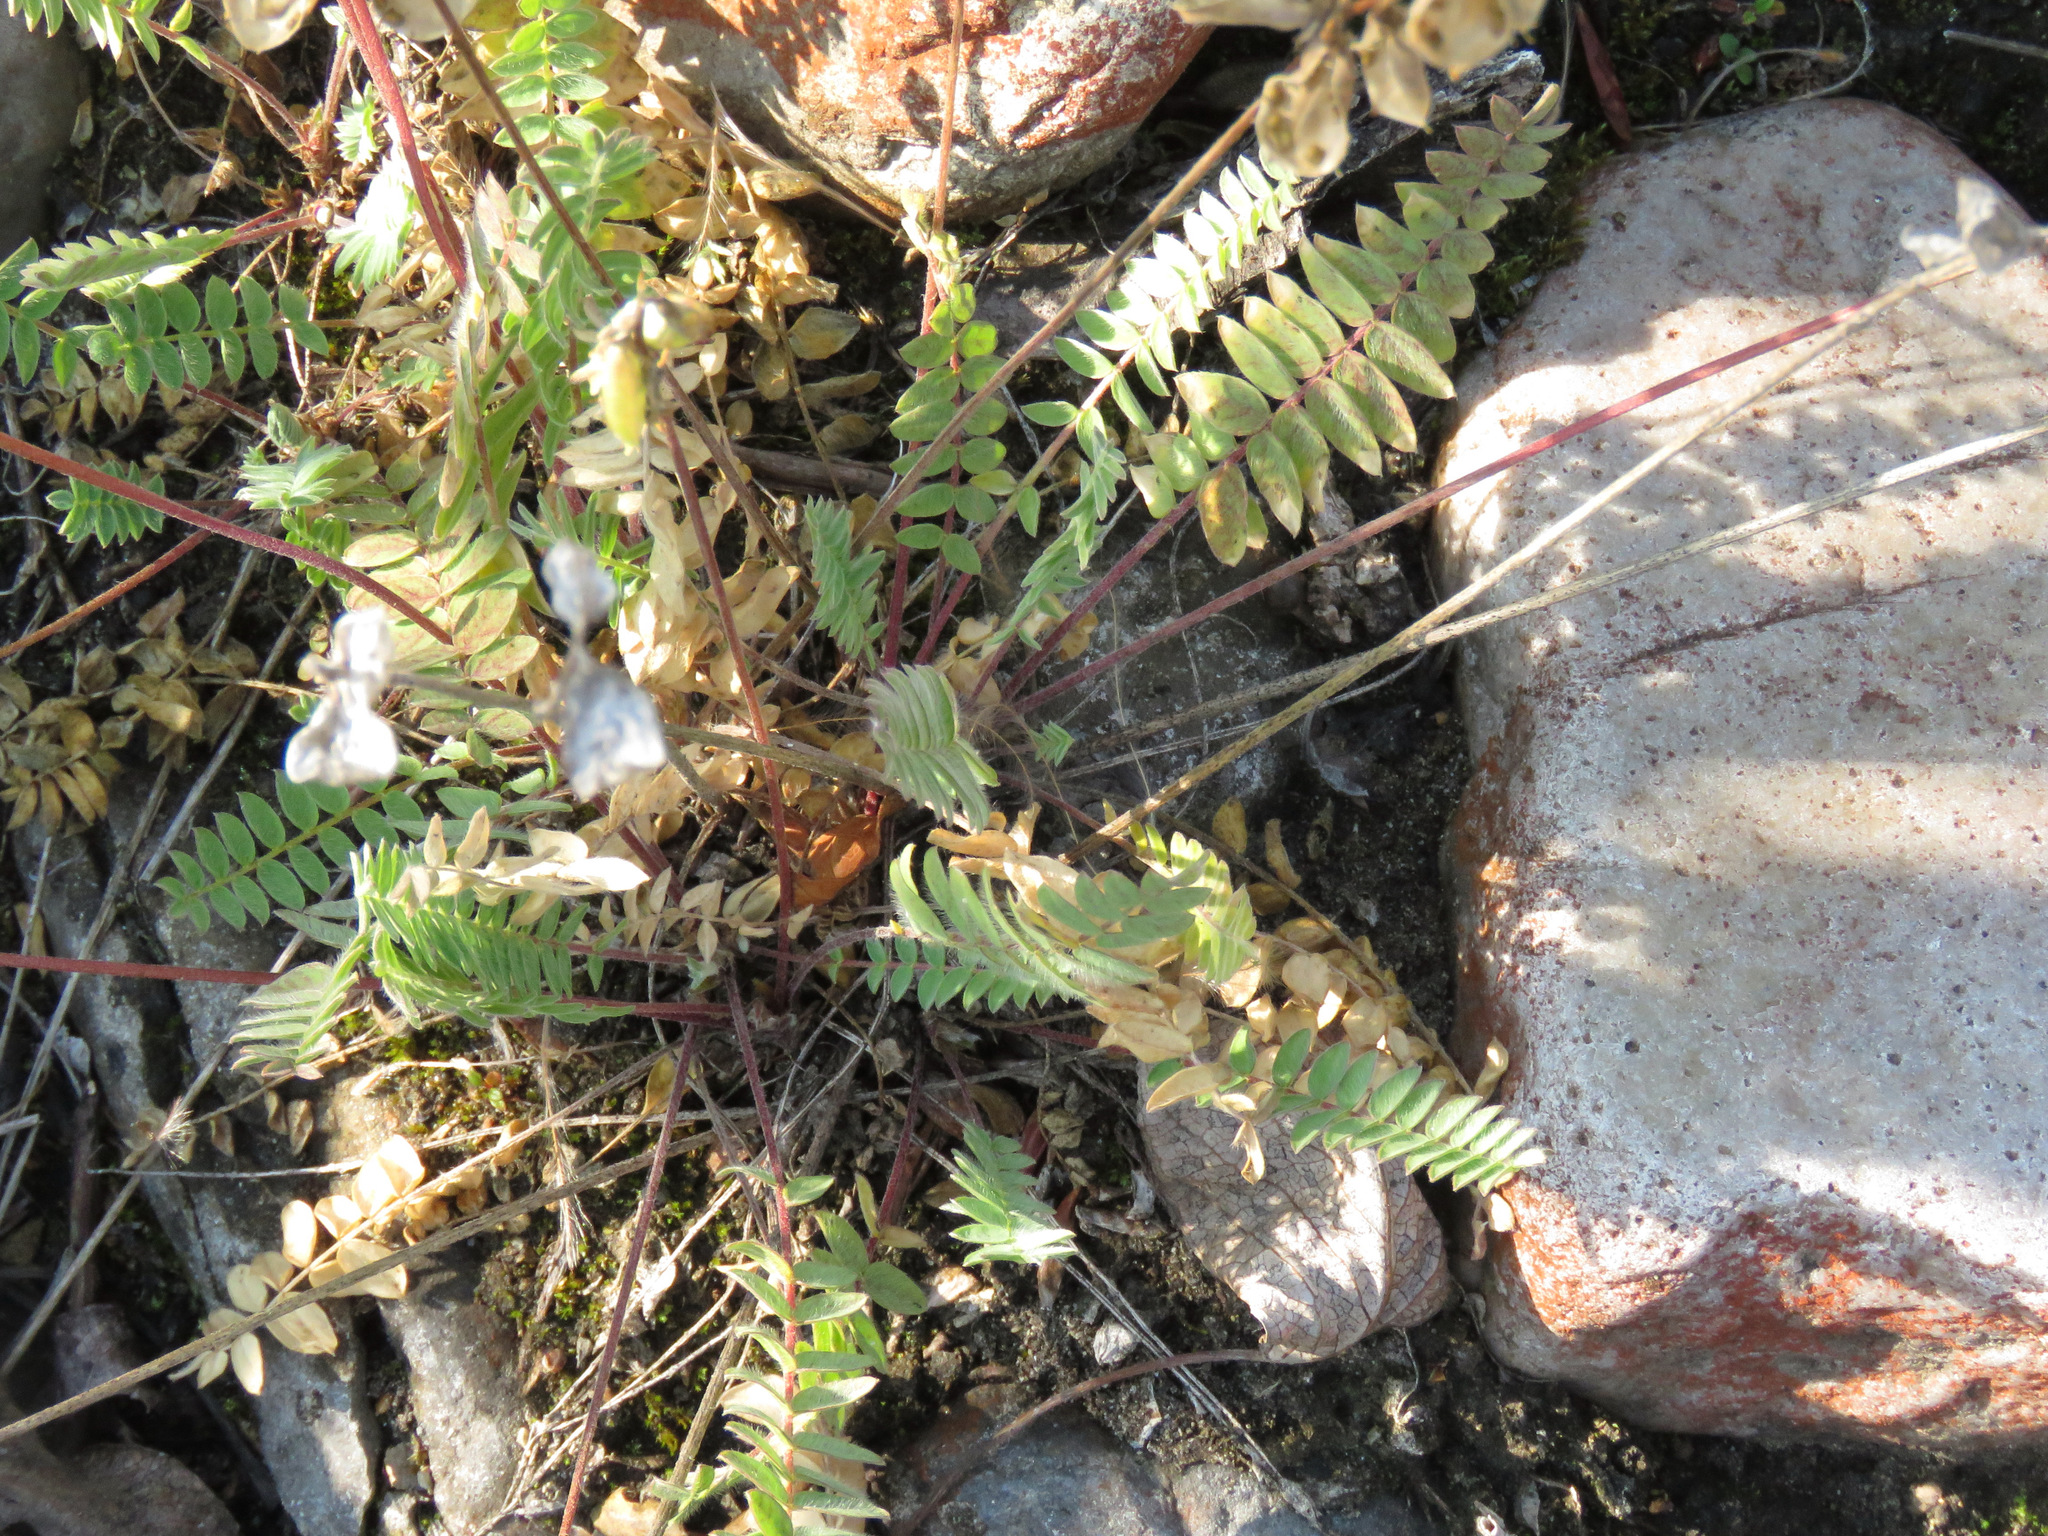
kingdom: Plantae
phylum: Tracheophyta
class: Magnoliopsida
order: Fabales
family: Fabaceae
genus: Oxytropis
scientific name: Oxytropis deflexa
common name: Stemmed oxytrope
